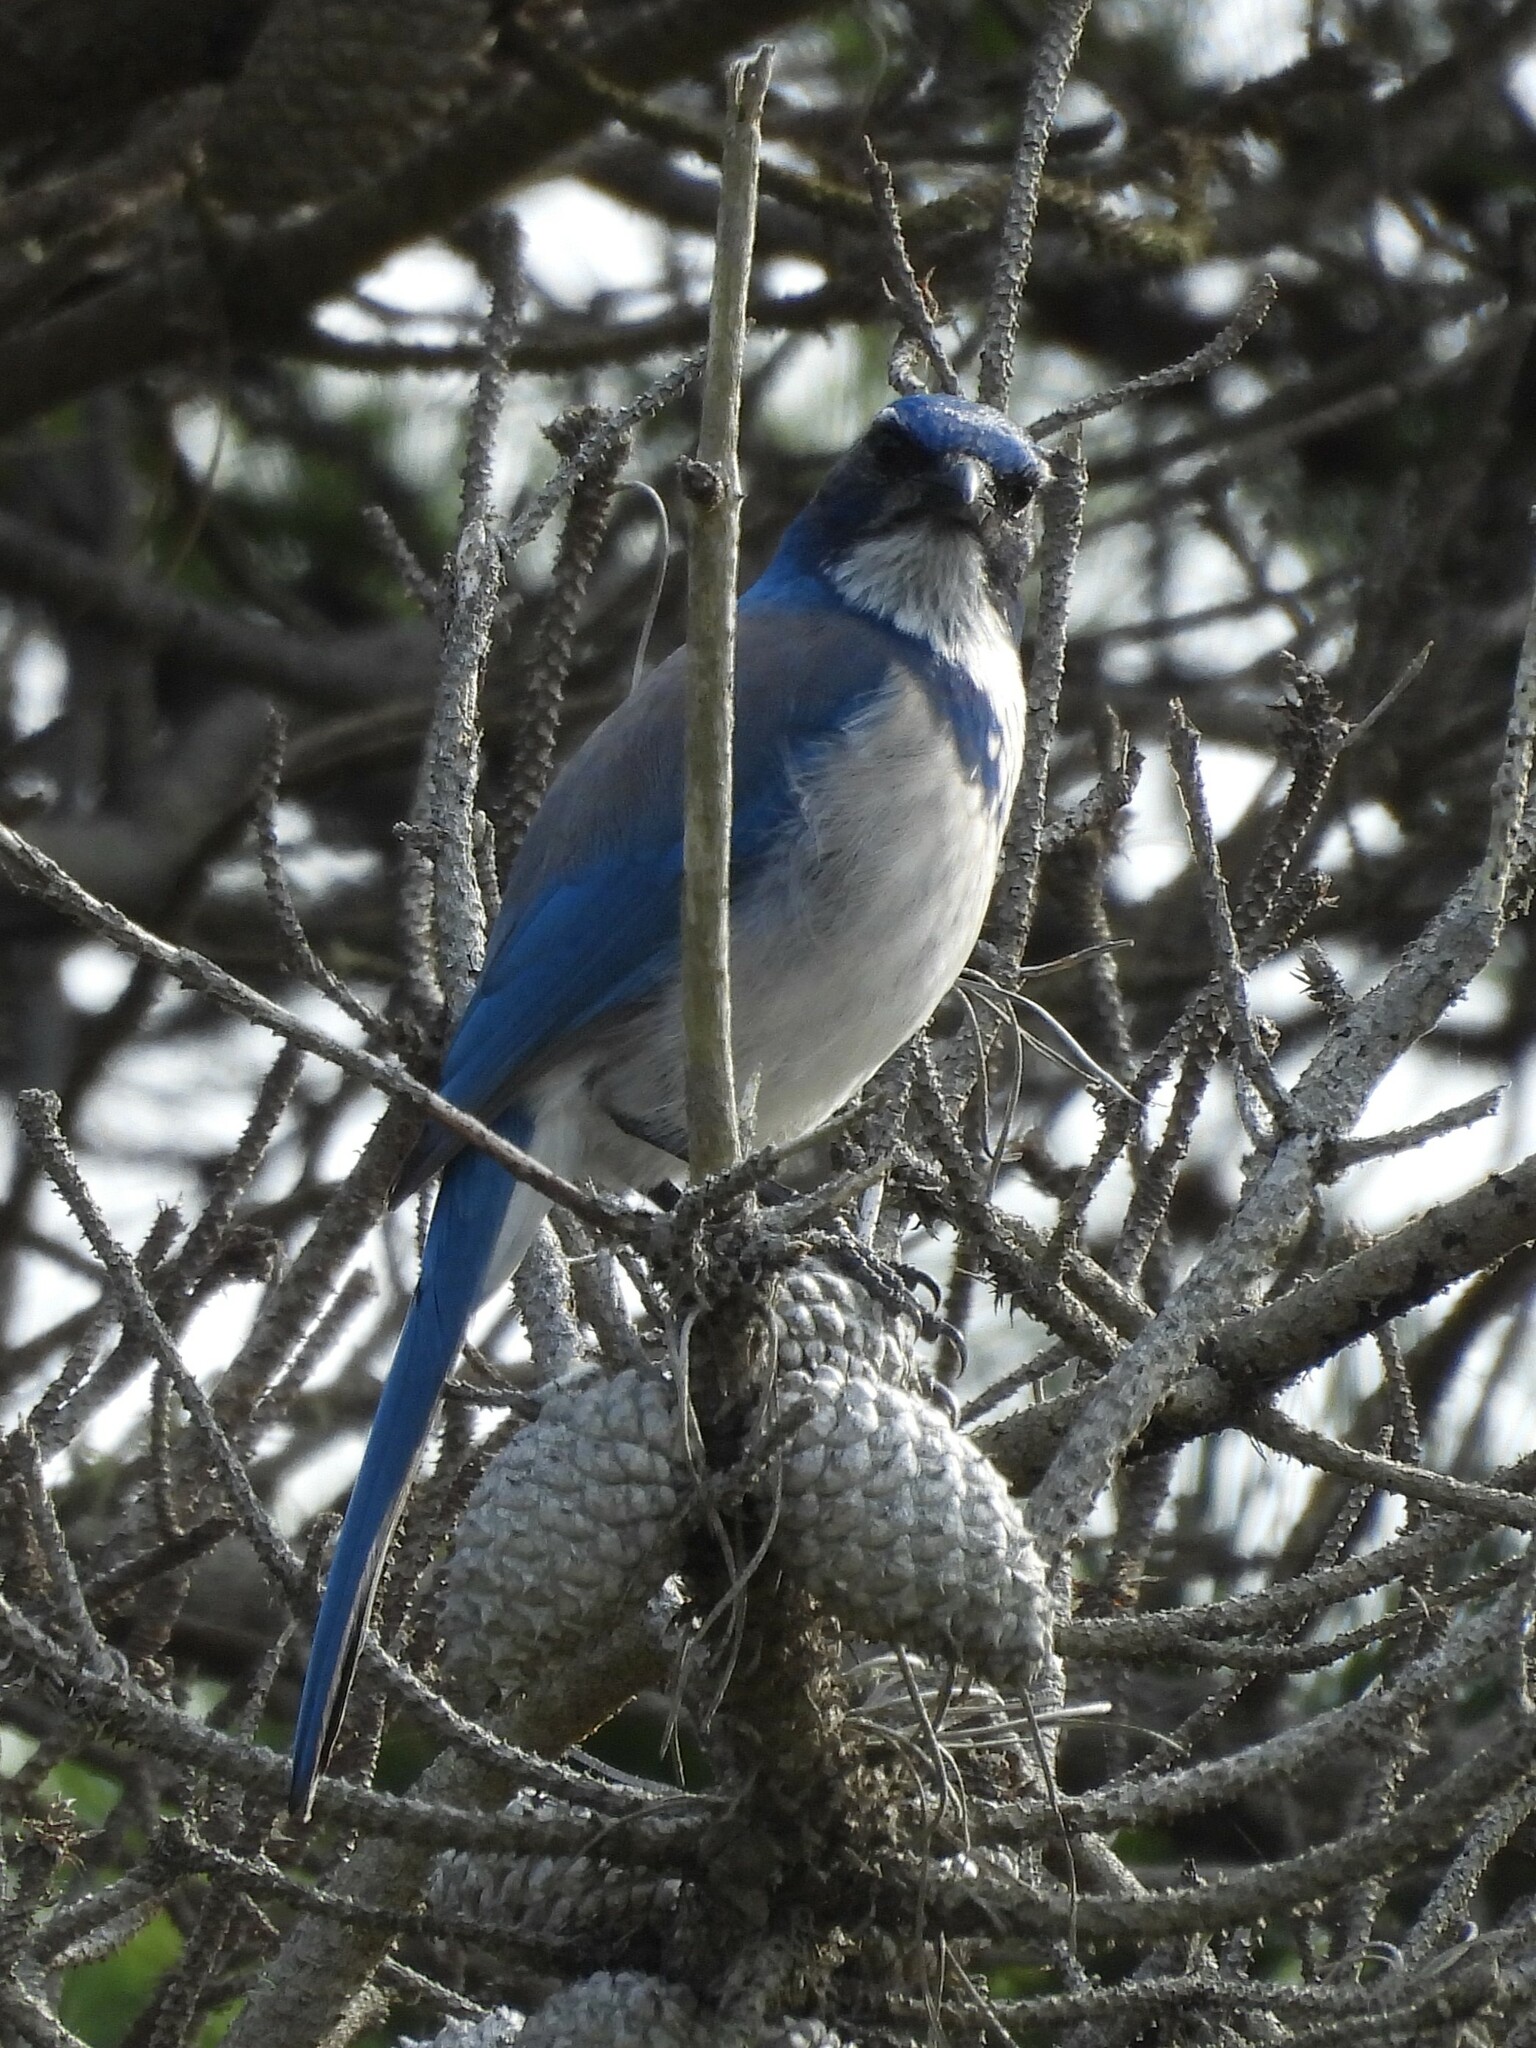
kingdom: Animalia
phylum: Chordata
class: Aves
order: Passeriformes
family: Corvidae
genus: Aphelocoma
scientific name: Aphelocoma californica
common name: California scrub-jay
